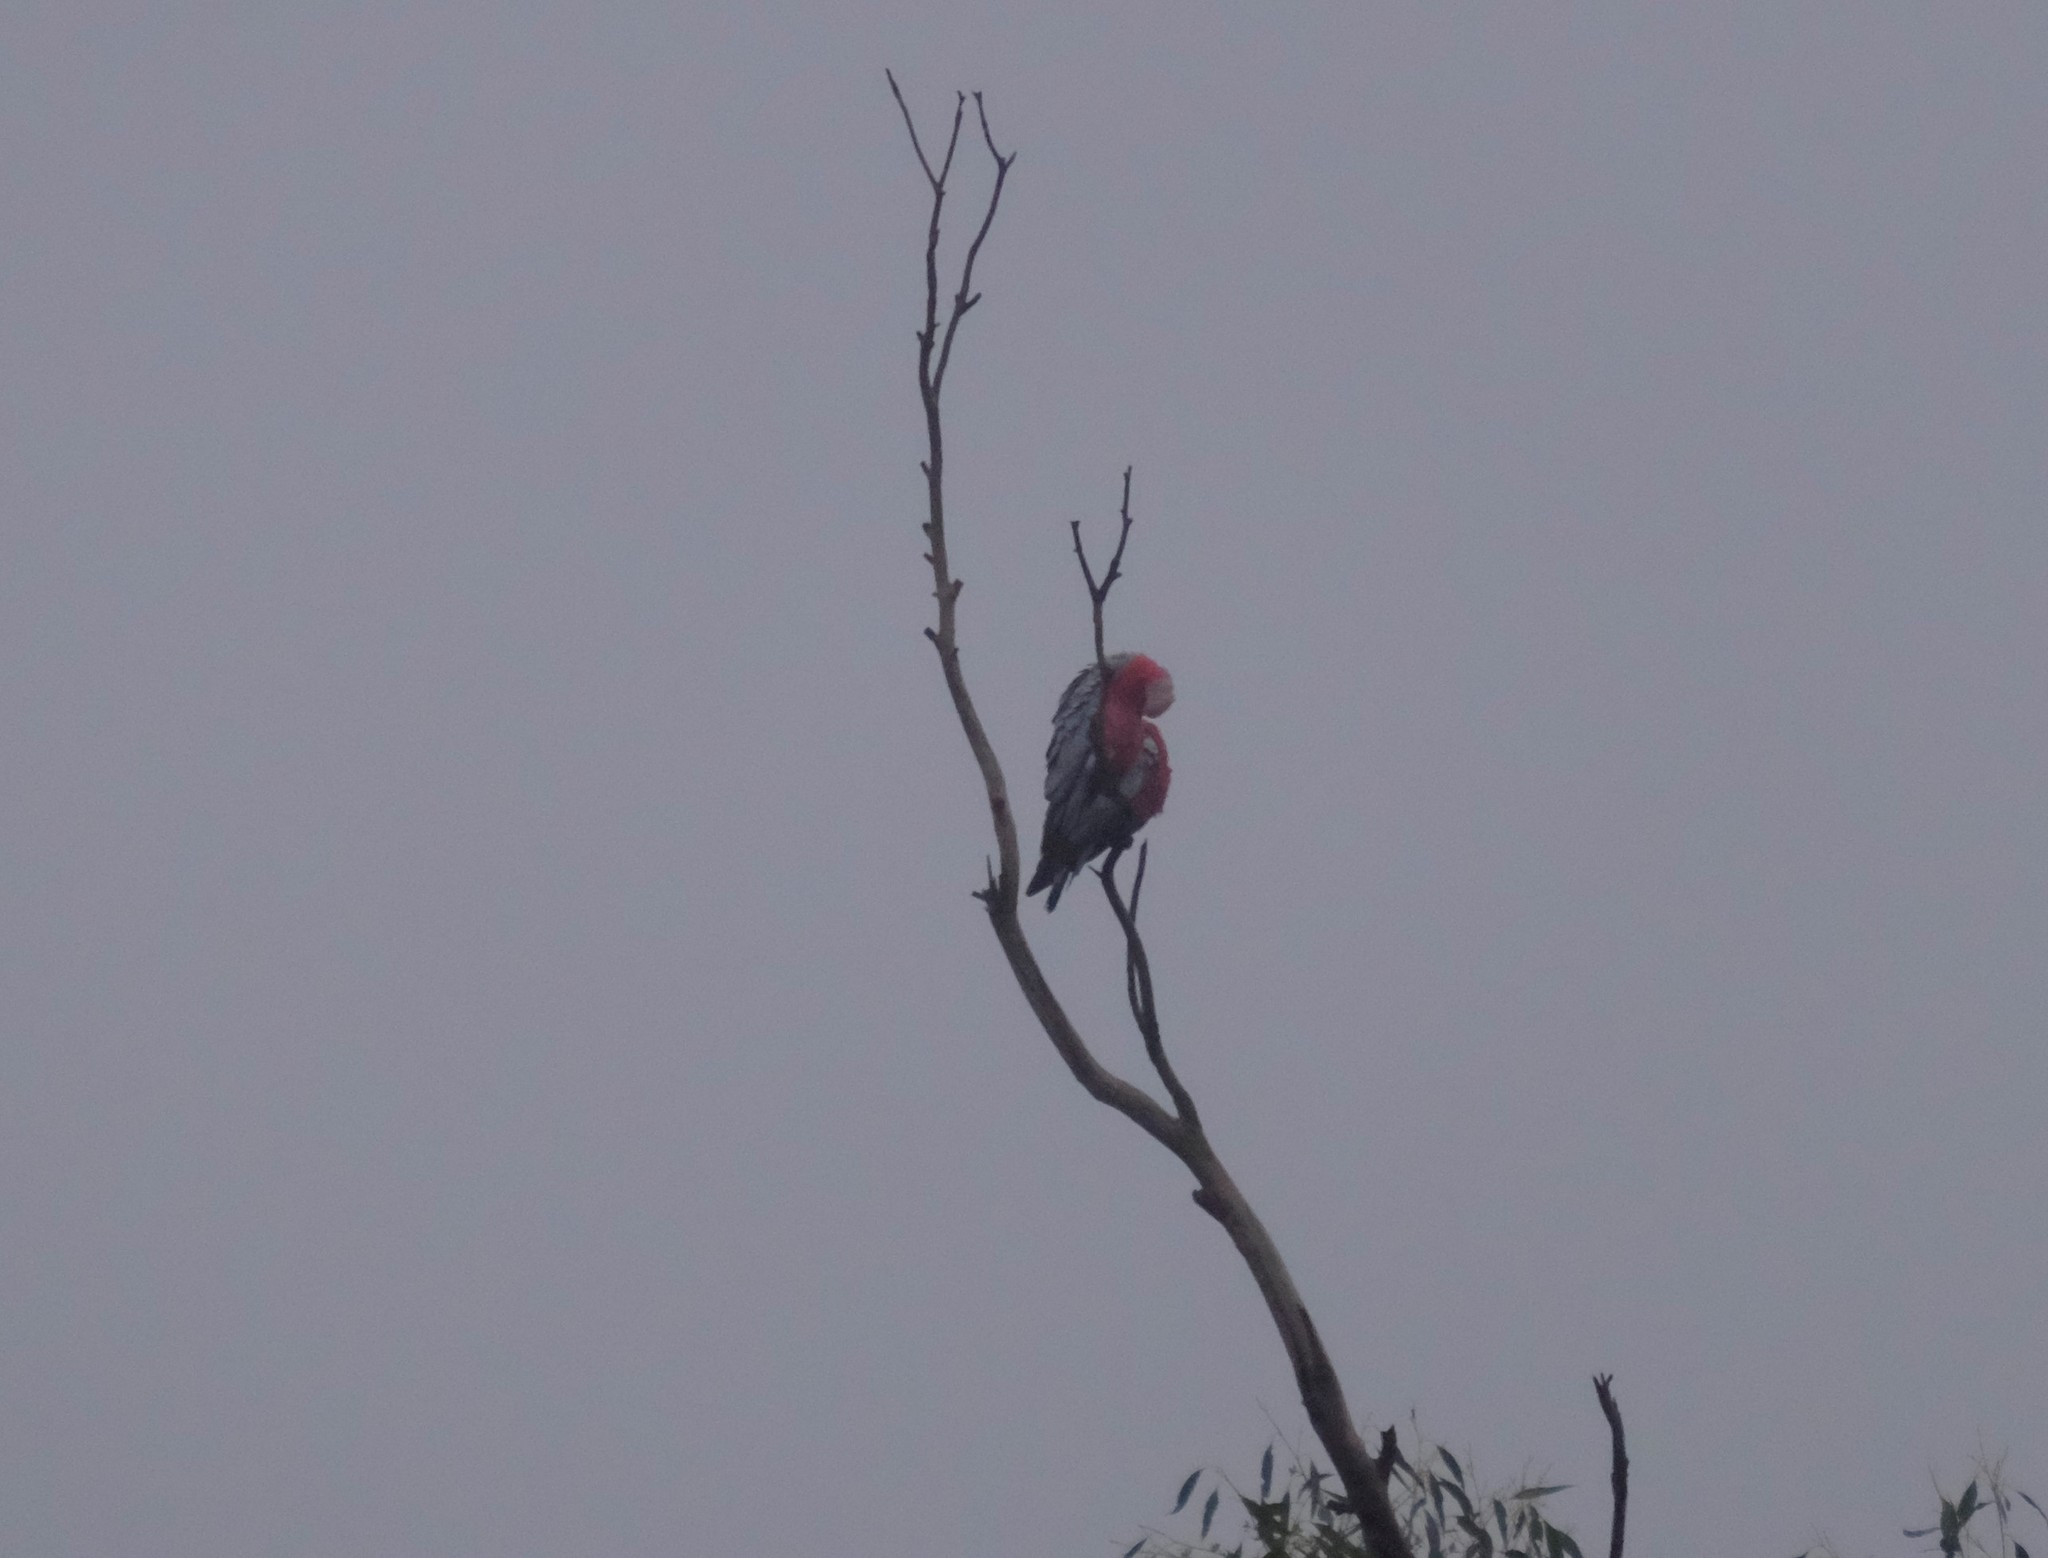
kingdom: Animalia
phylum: Chordata
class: Aves
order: Psittaciformes
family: Psittacidae
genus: Eolophus
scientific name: Eolophus roseicapilla
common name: Galah
